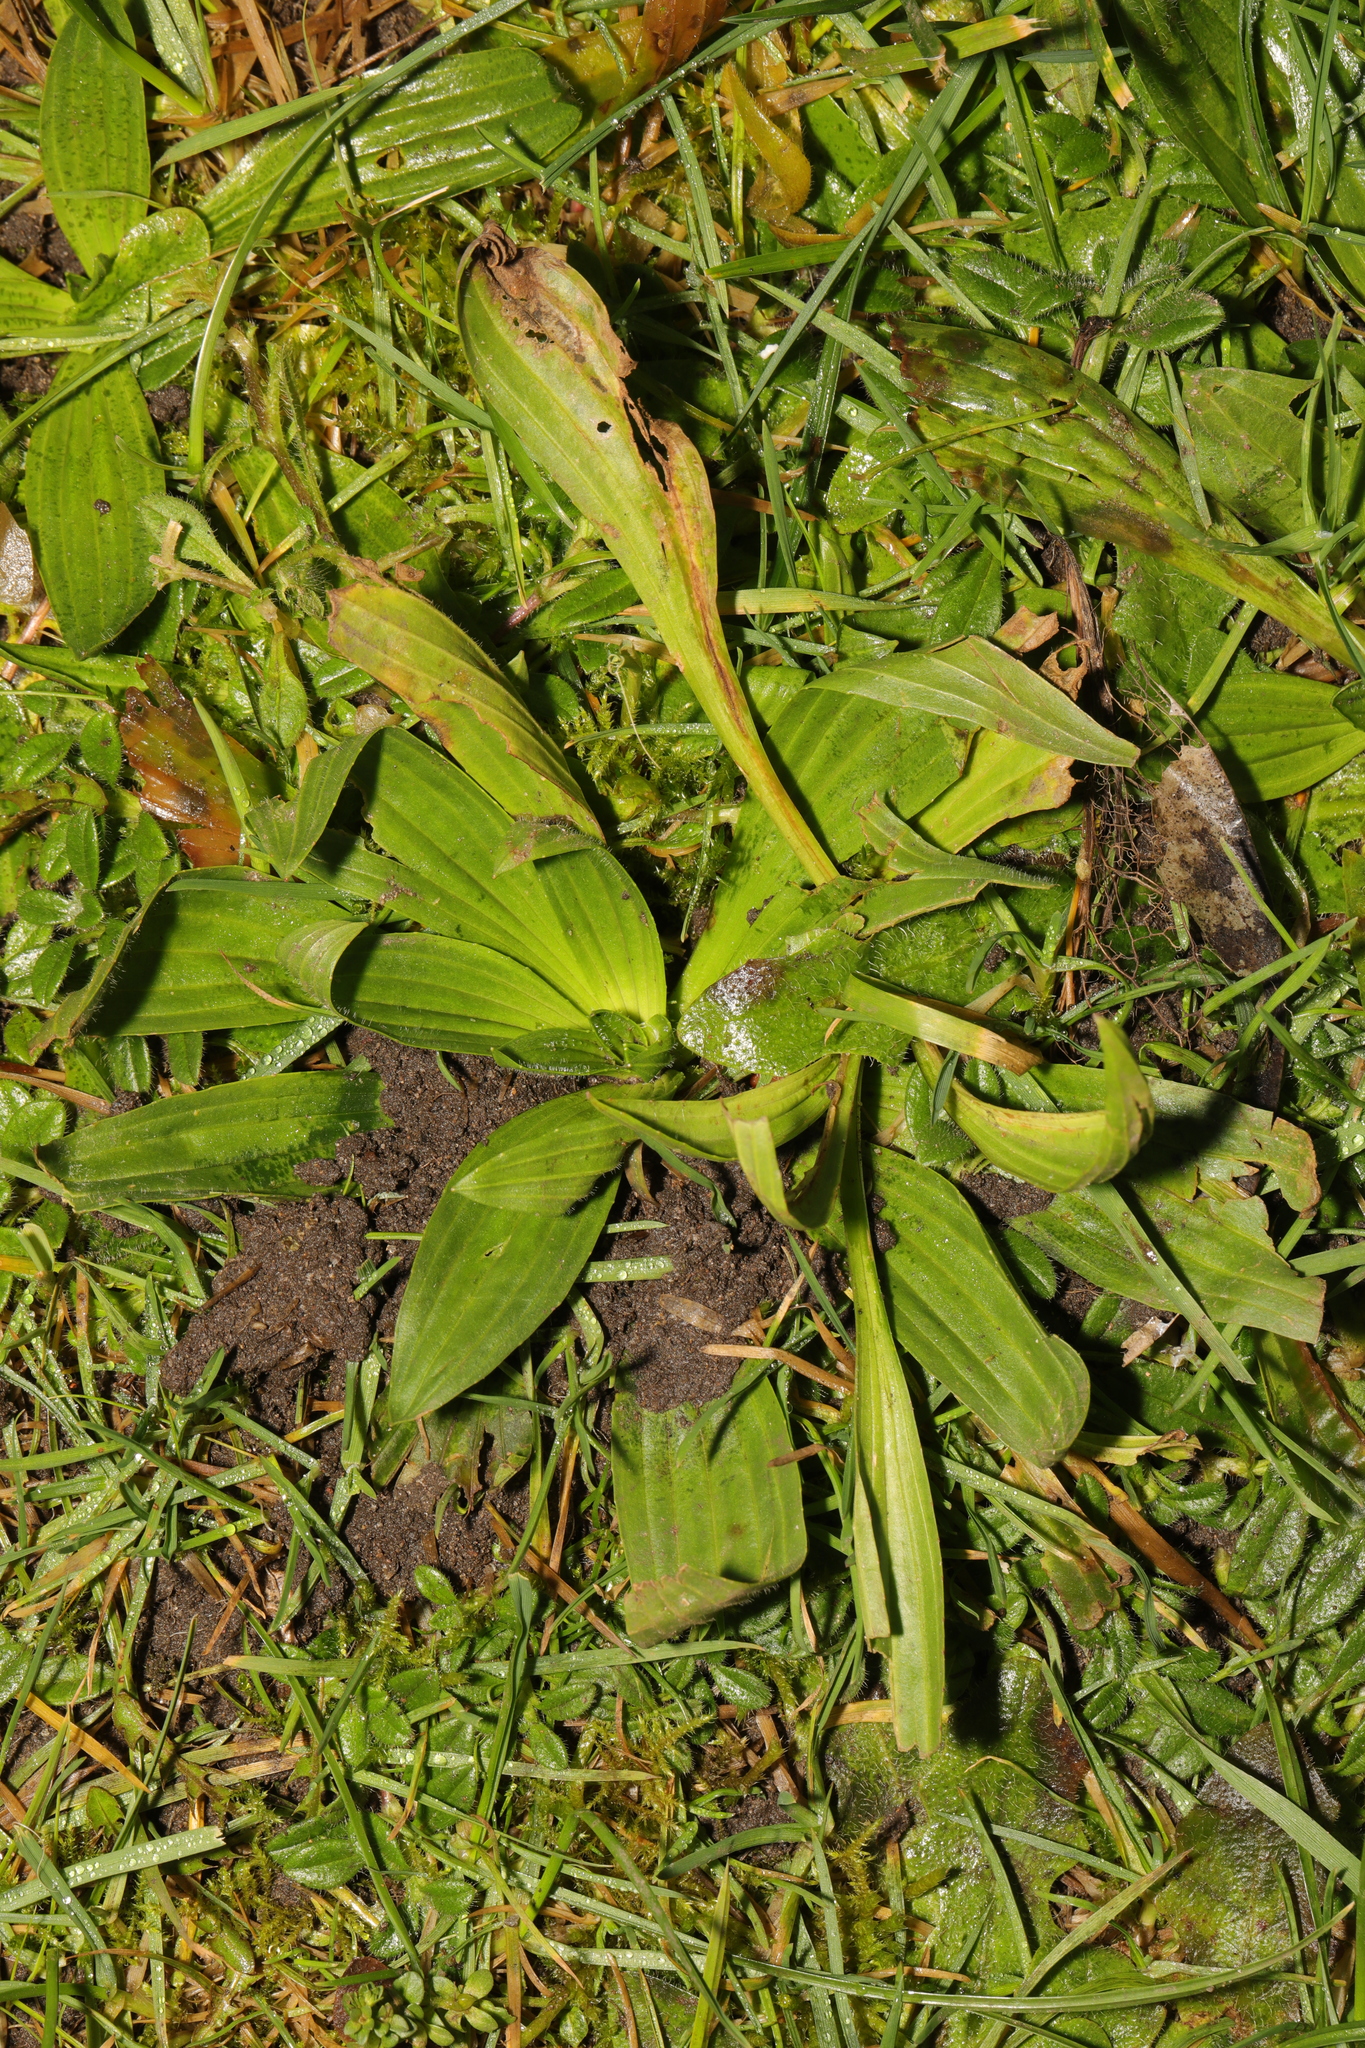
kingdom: Plantae
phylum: Tracheophyta
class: Magnoliopsida
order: Lamiales
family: Plantaginaceae
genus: Plantago
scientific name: Plantago lanceolata
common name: Ribwort plantain
